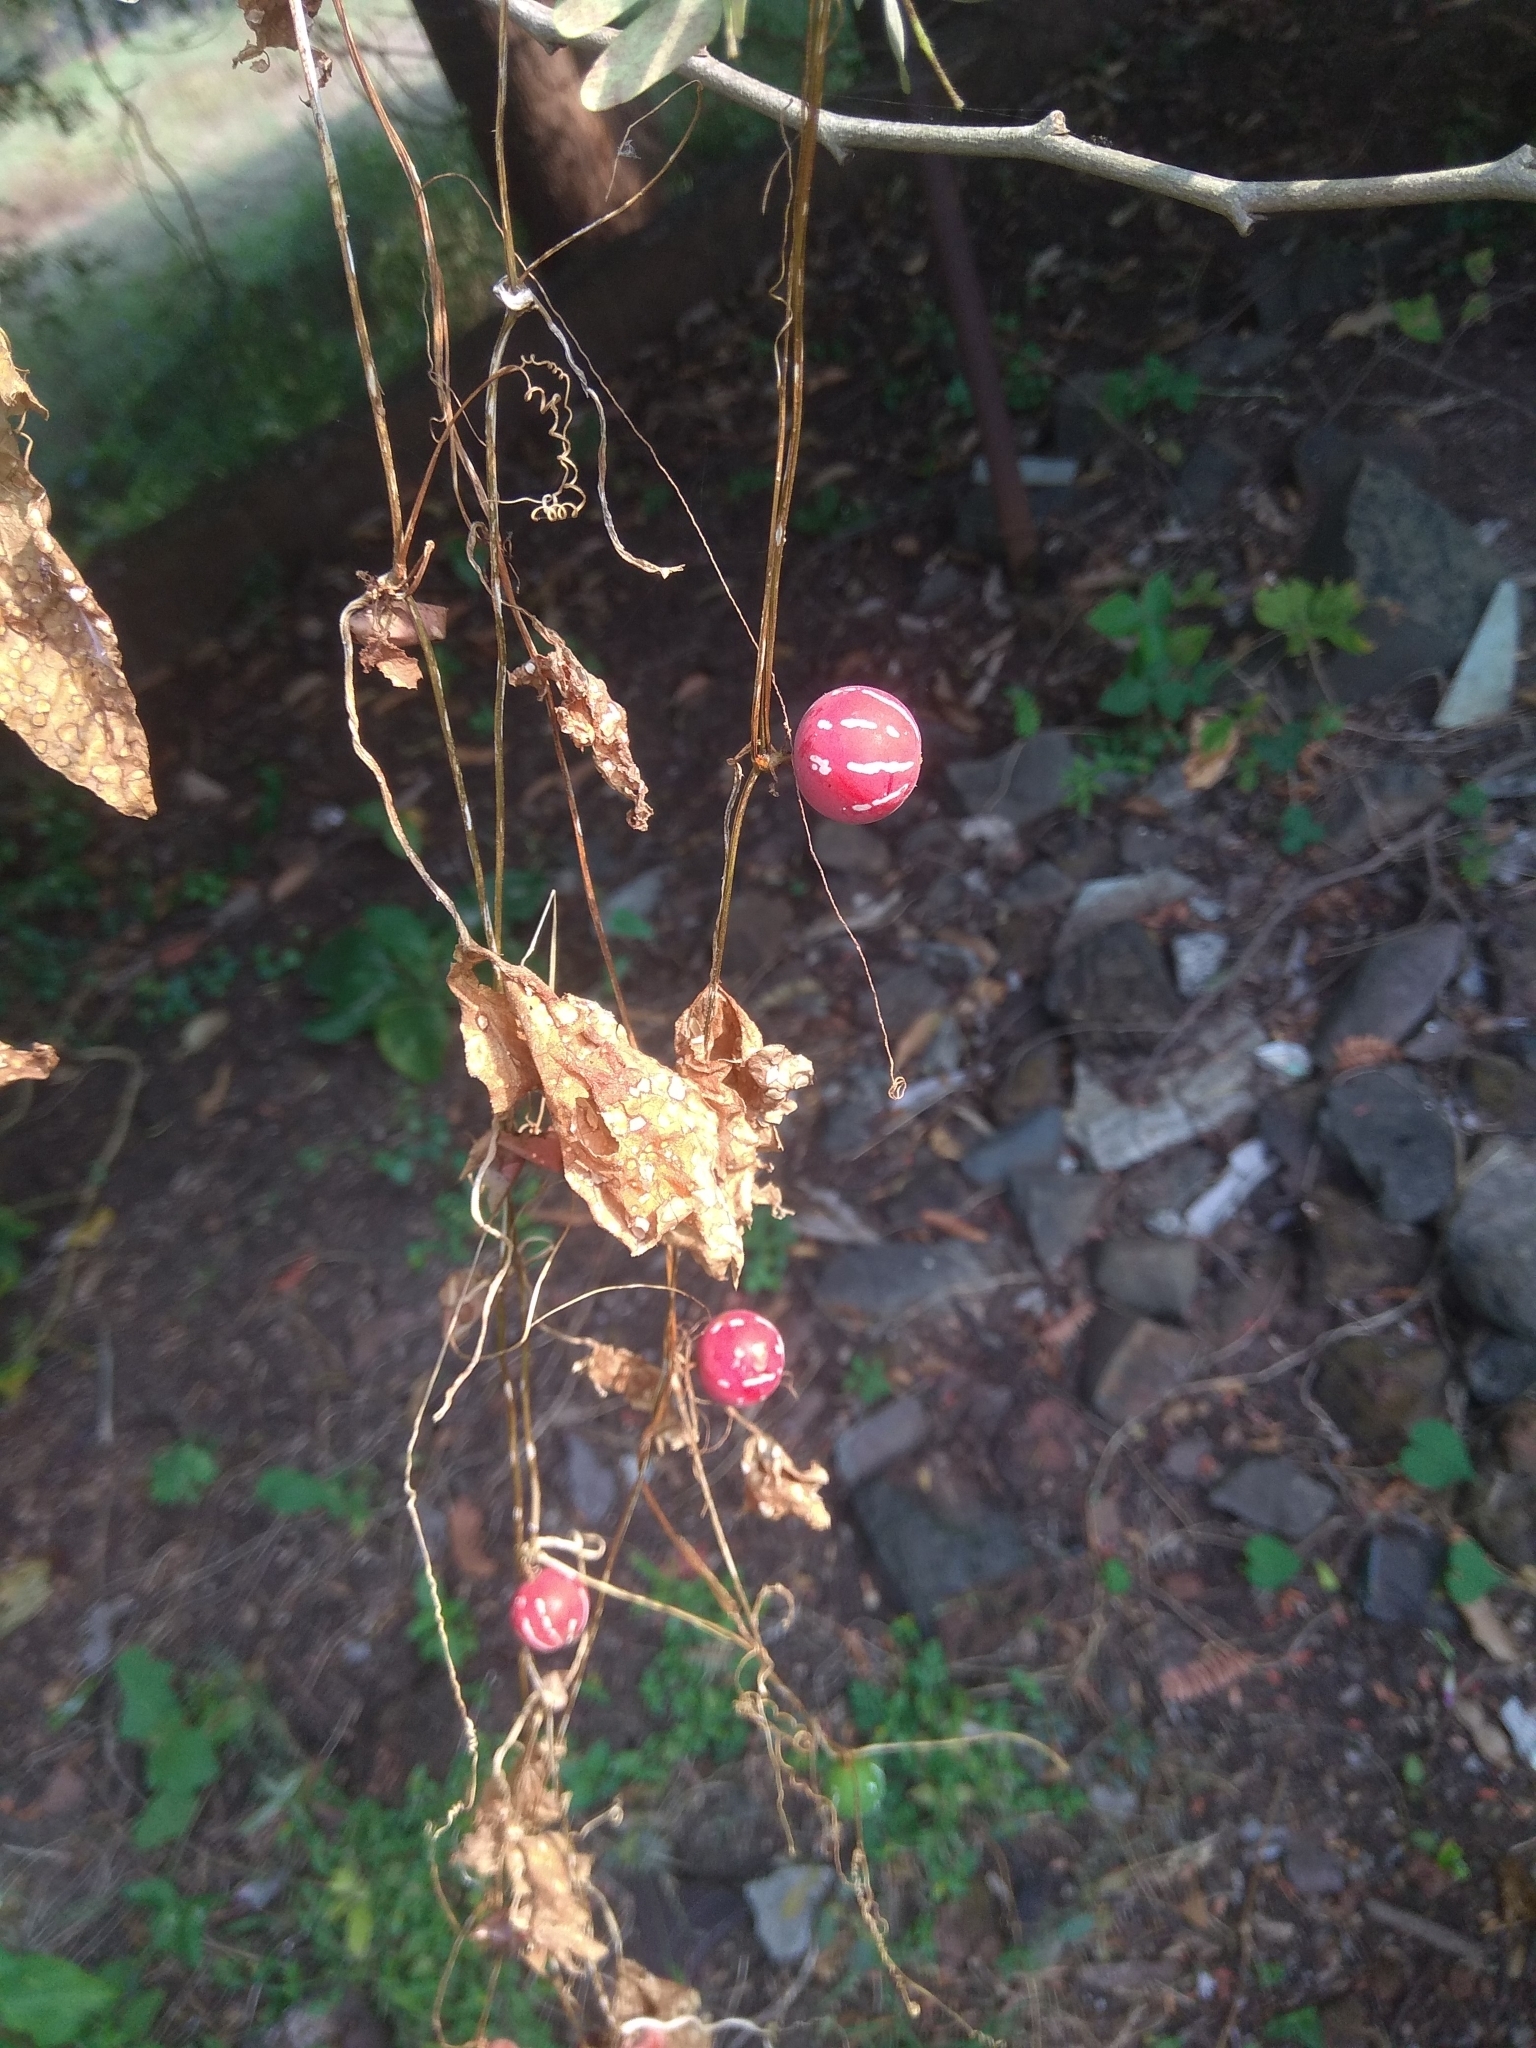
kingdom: Plantae
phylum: Tracheophyta
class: Magnoliopsida
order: Cucurbitales
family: Cucurbitaceae
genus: Diplocyclos
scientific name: Diplocyclos palmatus
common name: Striped-cucumber
